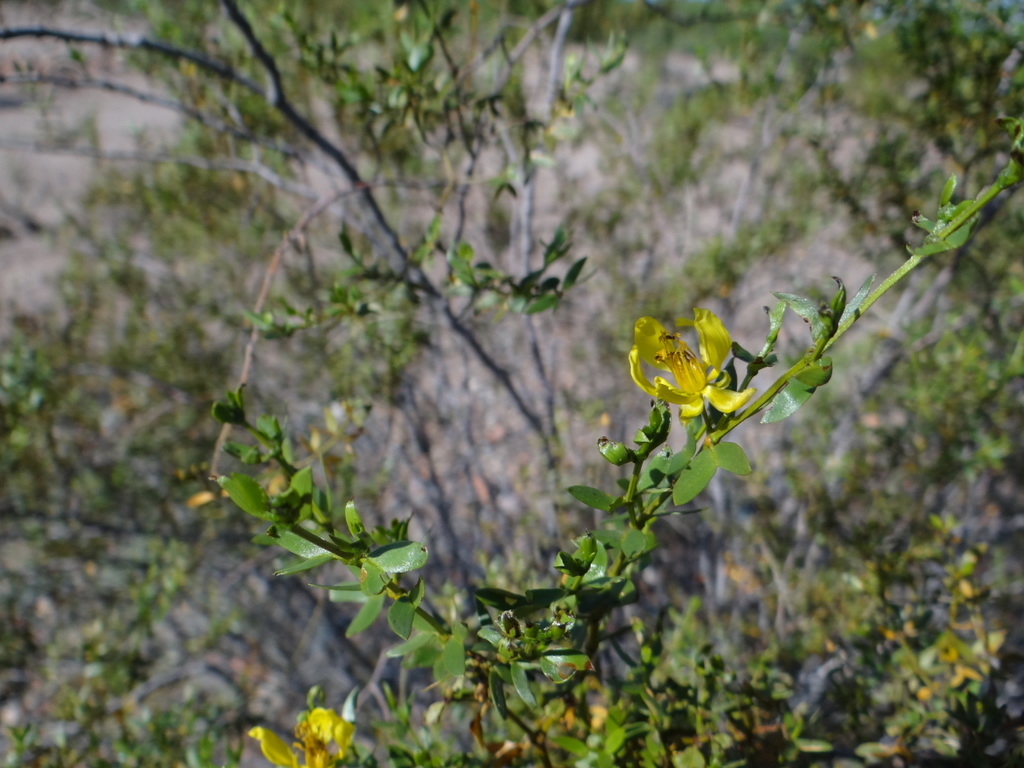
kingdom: Plantae
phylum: Tracheophyta
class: Magnoliopsida
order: Zygophyllales
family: Zygophyllaceae
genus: Larrea
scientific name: Larrea divaricata
